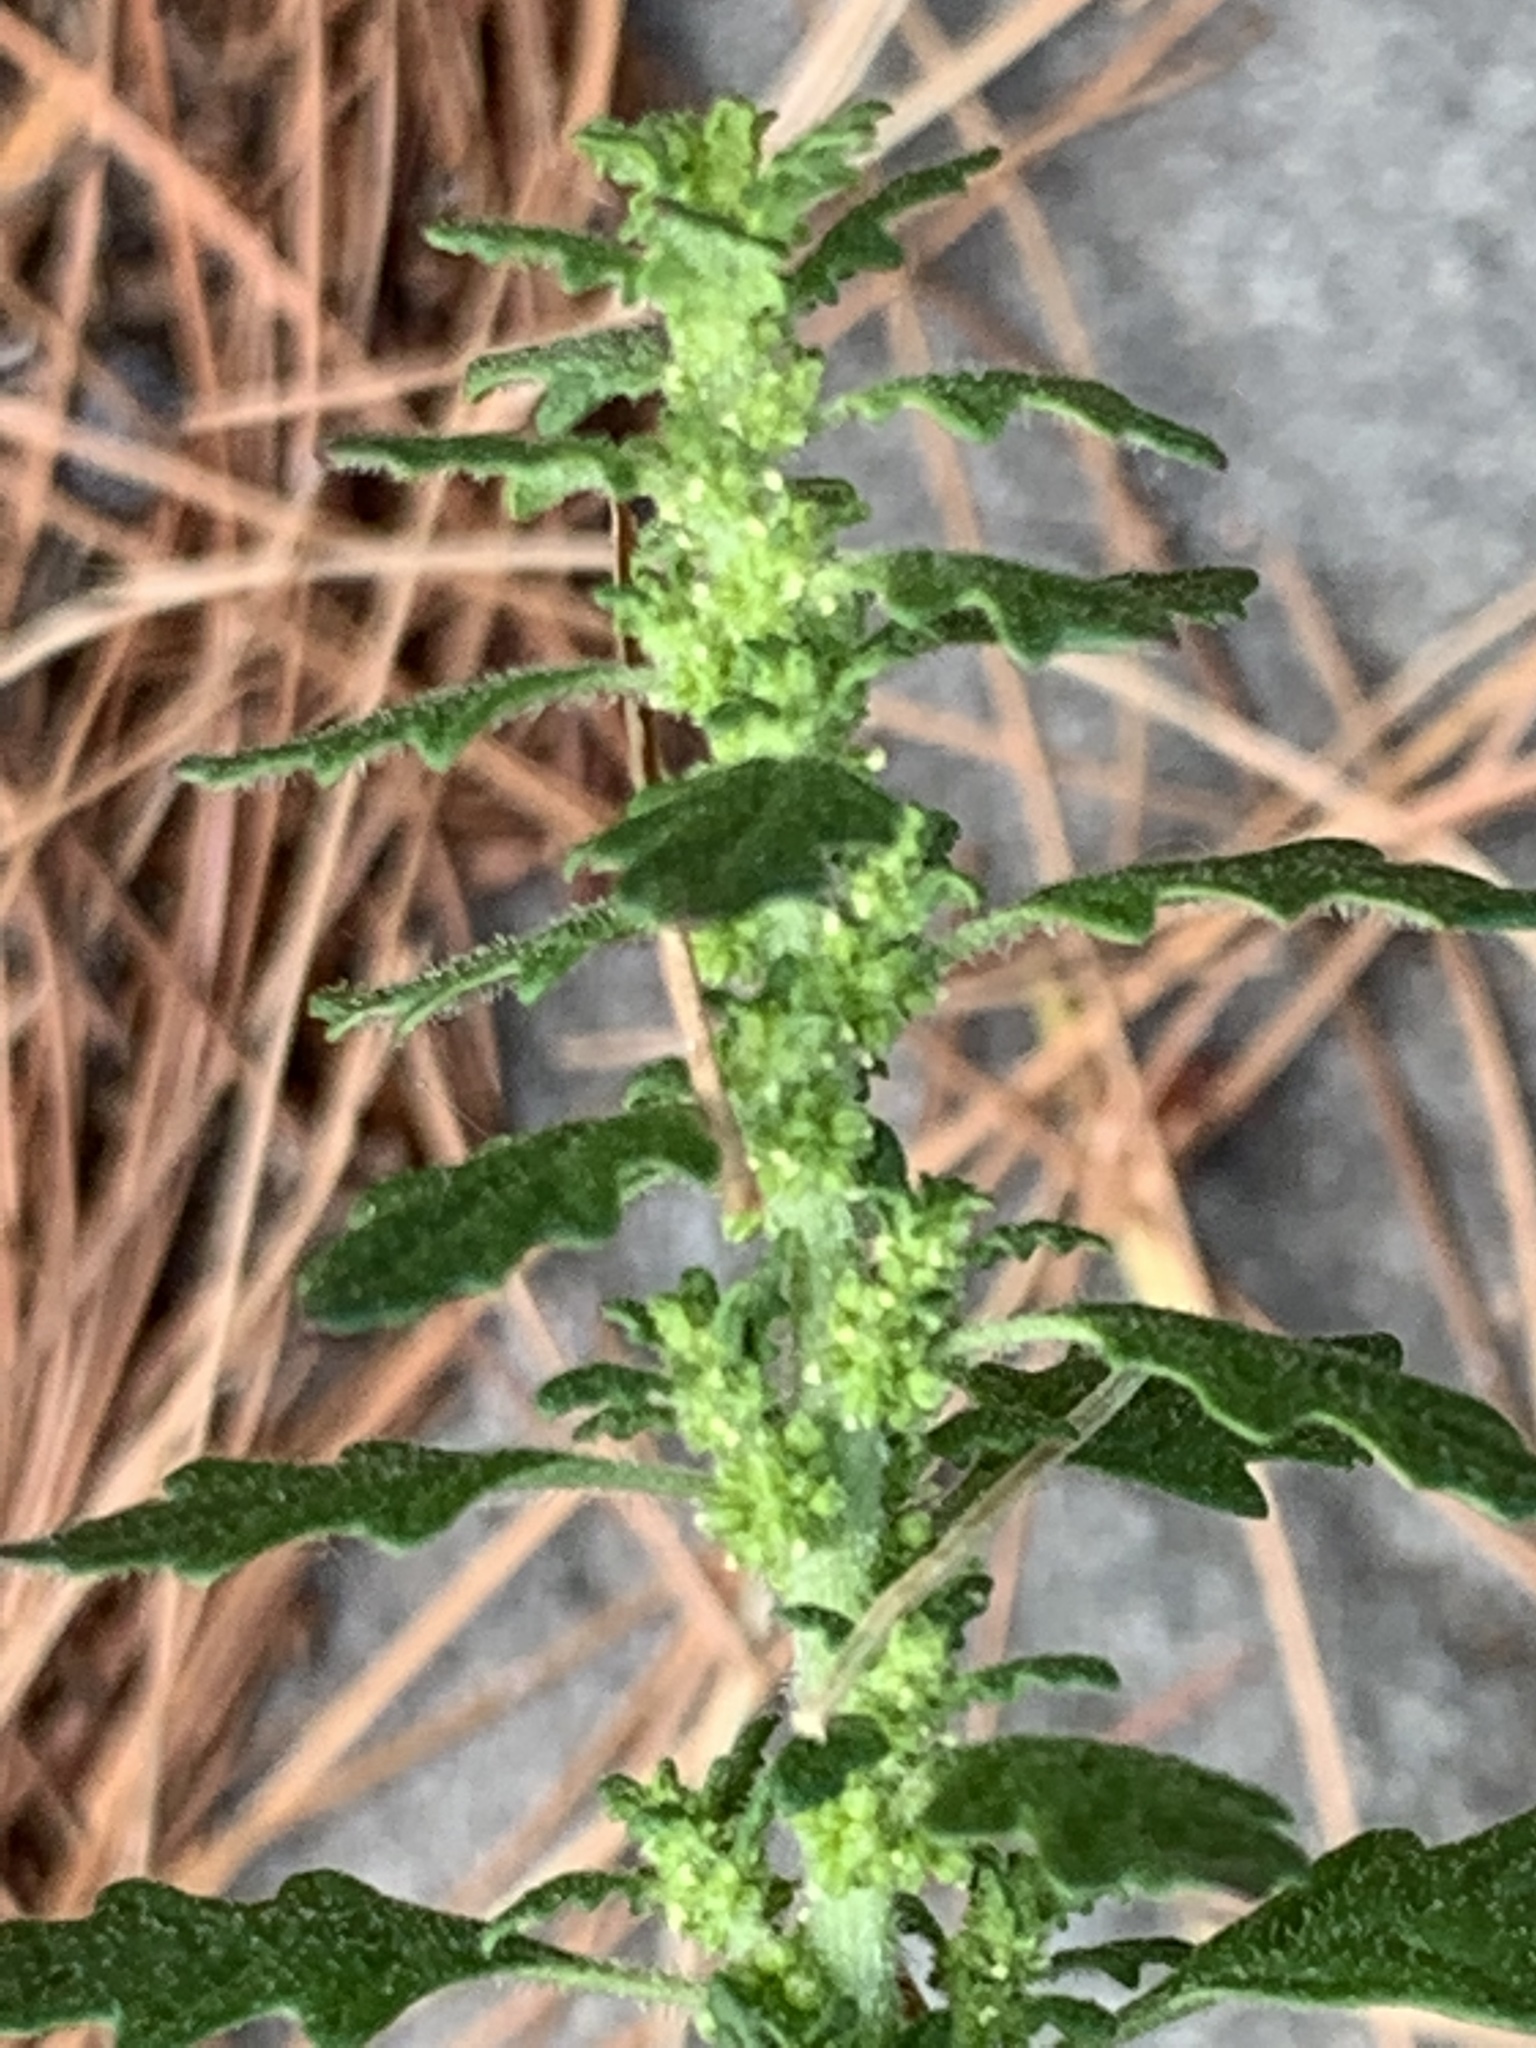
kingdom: Plantae
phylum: Tracheophyta
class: Magnoliopsida
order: Caryophyllales
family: Amaranthaceae
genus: Dysphania
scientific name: Dysphania pumilio
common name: Clammy goosefoot
